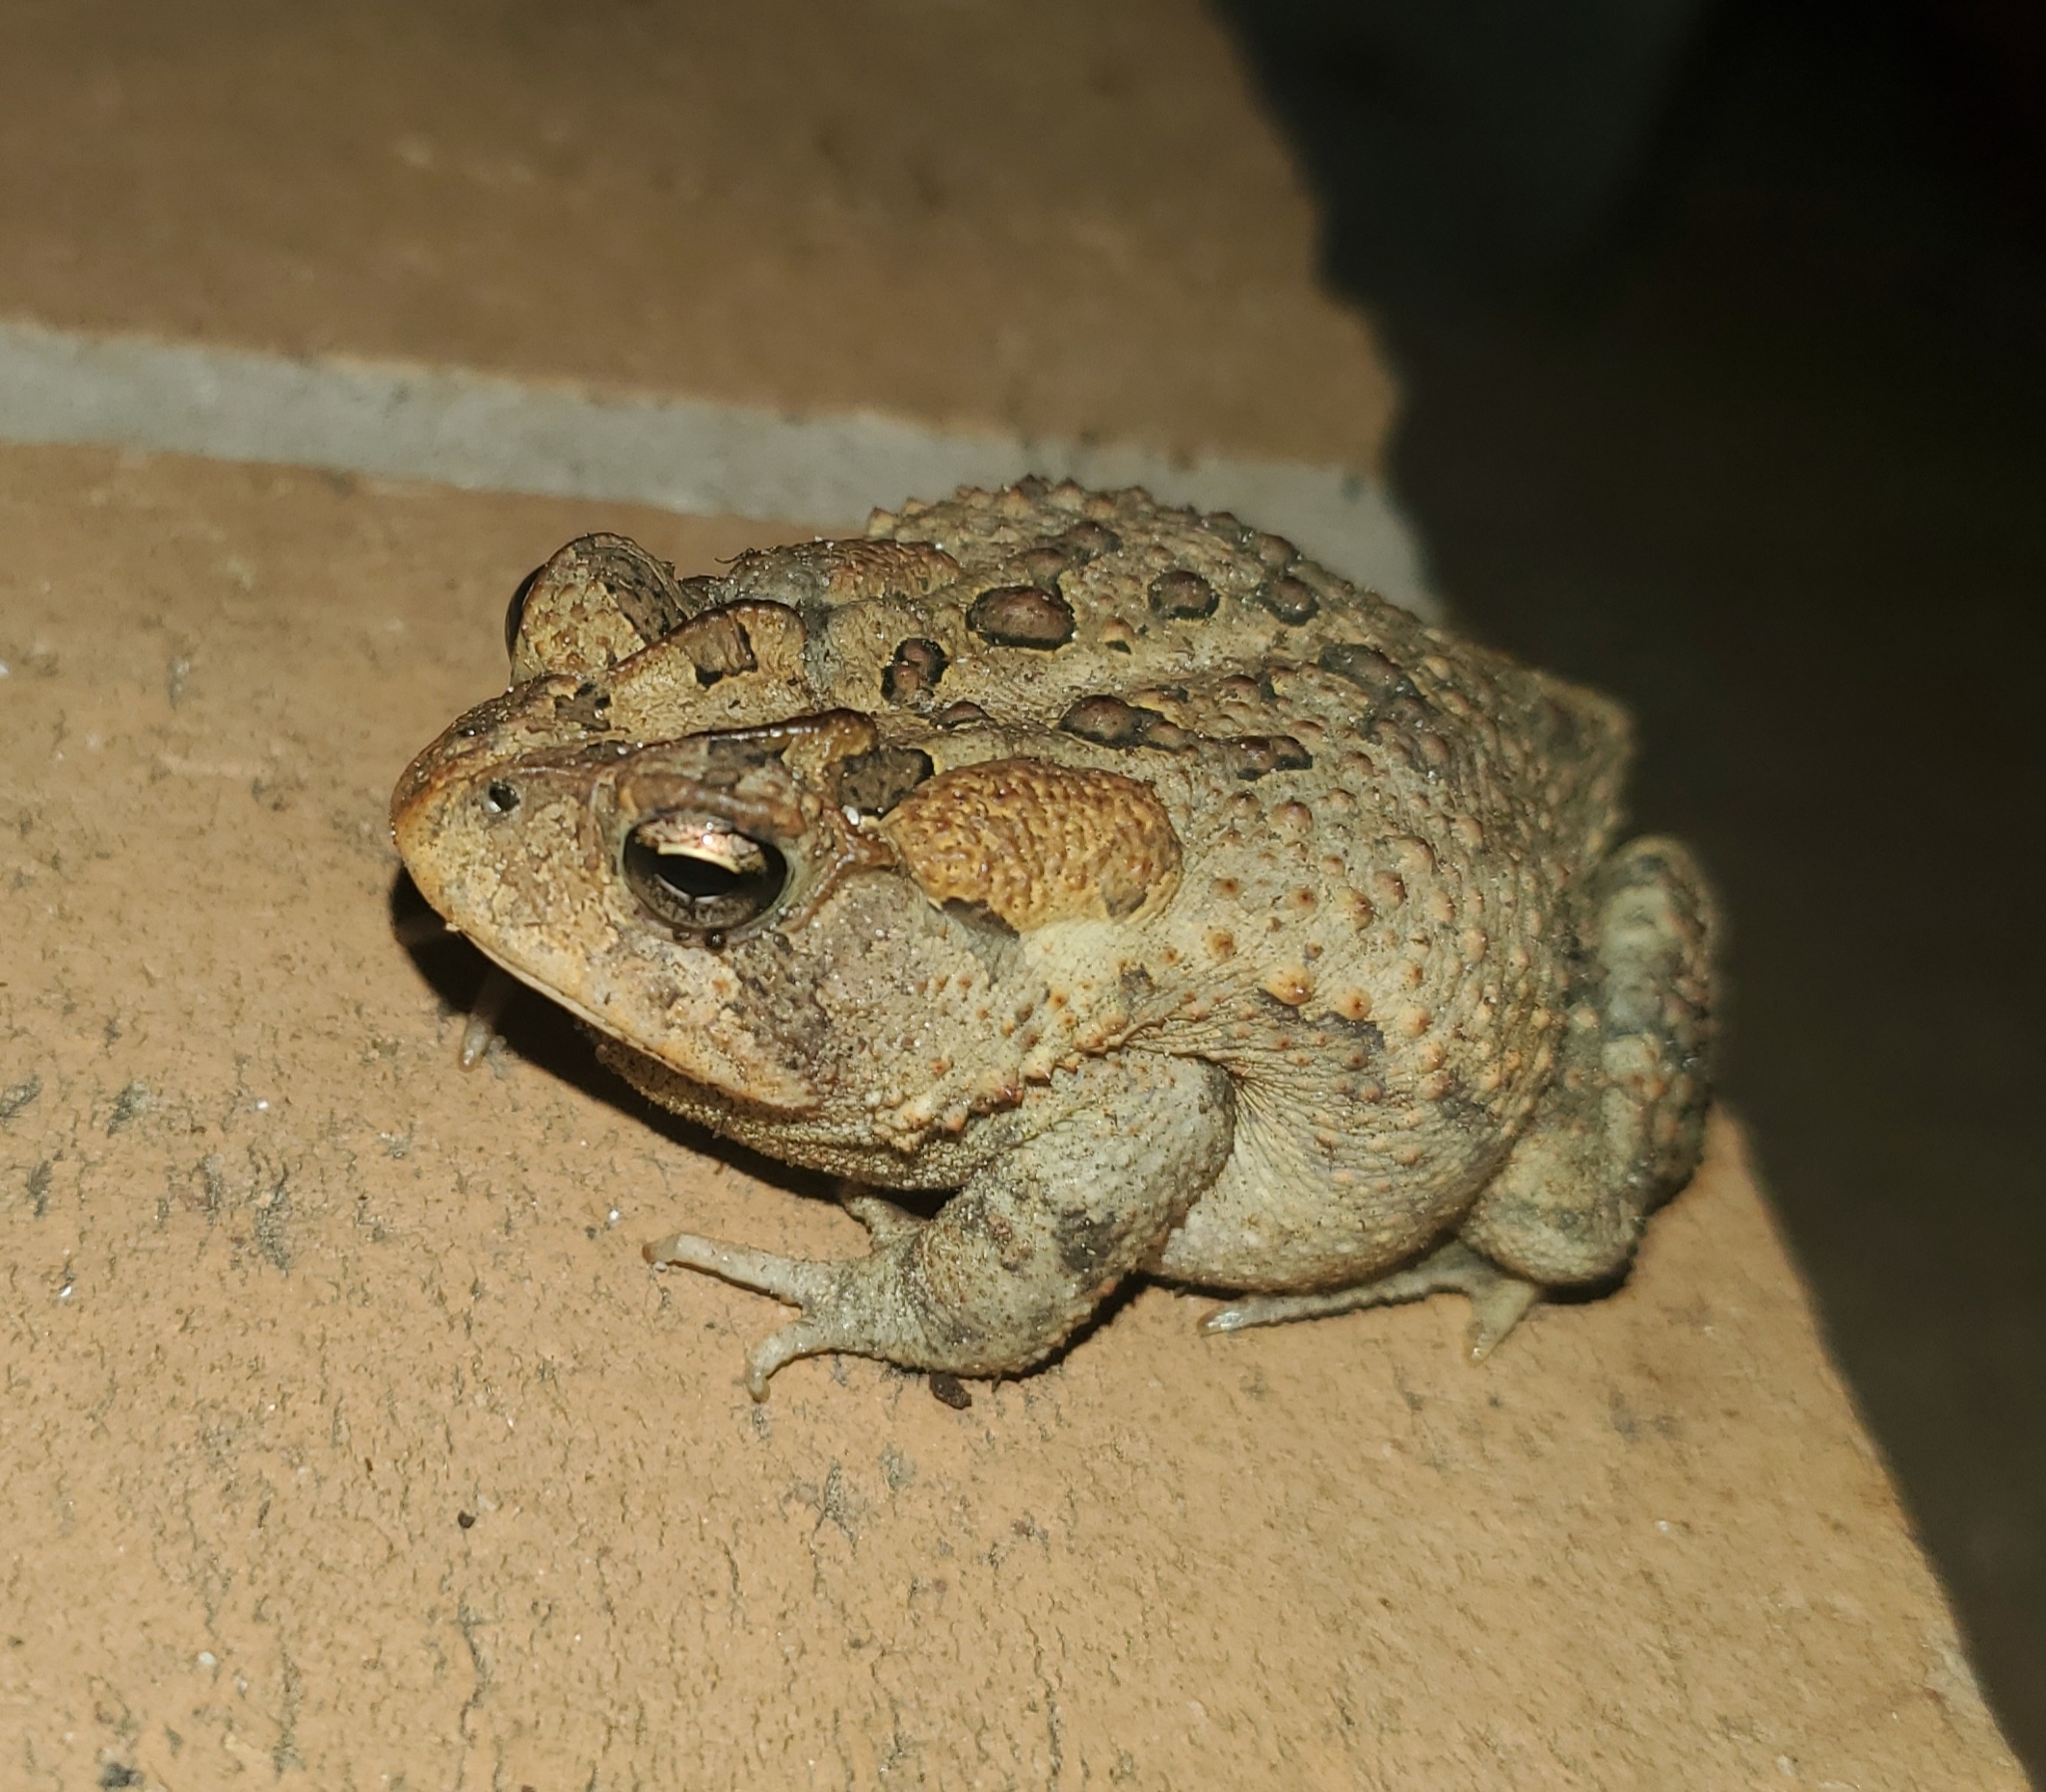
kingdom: Animalia
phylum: Chordata
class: Amphibia
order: Anura
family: Bufonidae
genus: Anaxyrus
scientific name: Anaxyrus terrestris
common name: Southern toad
